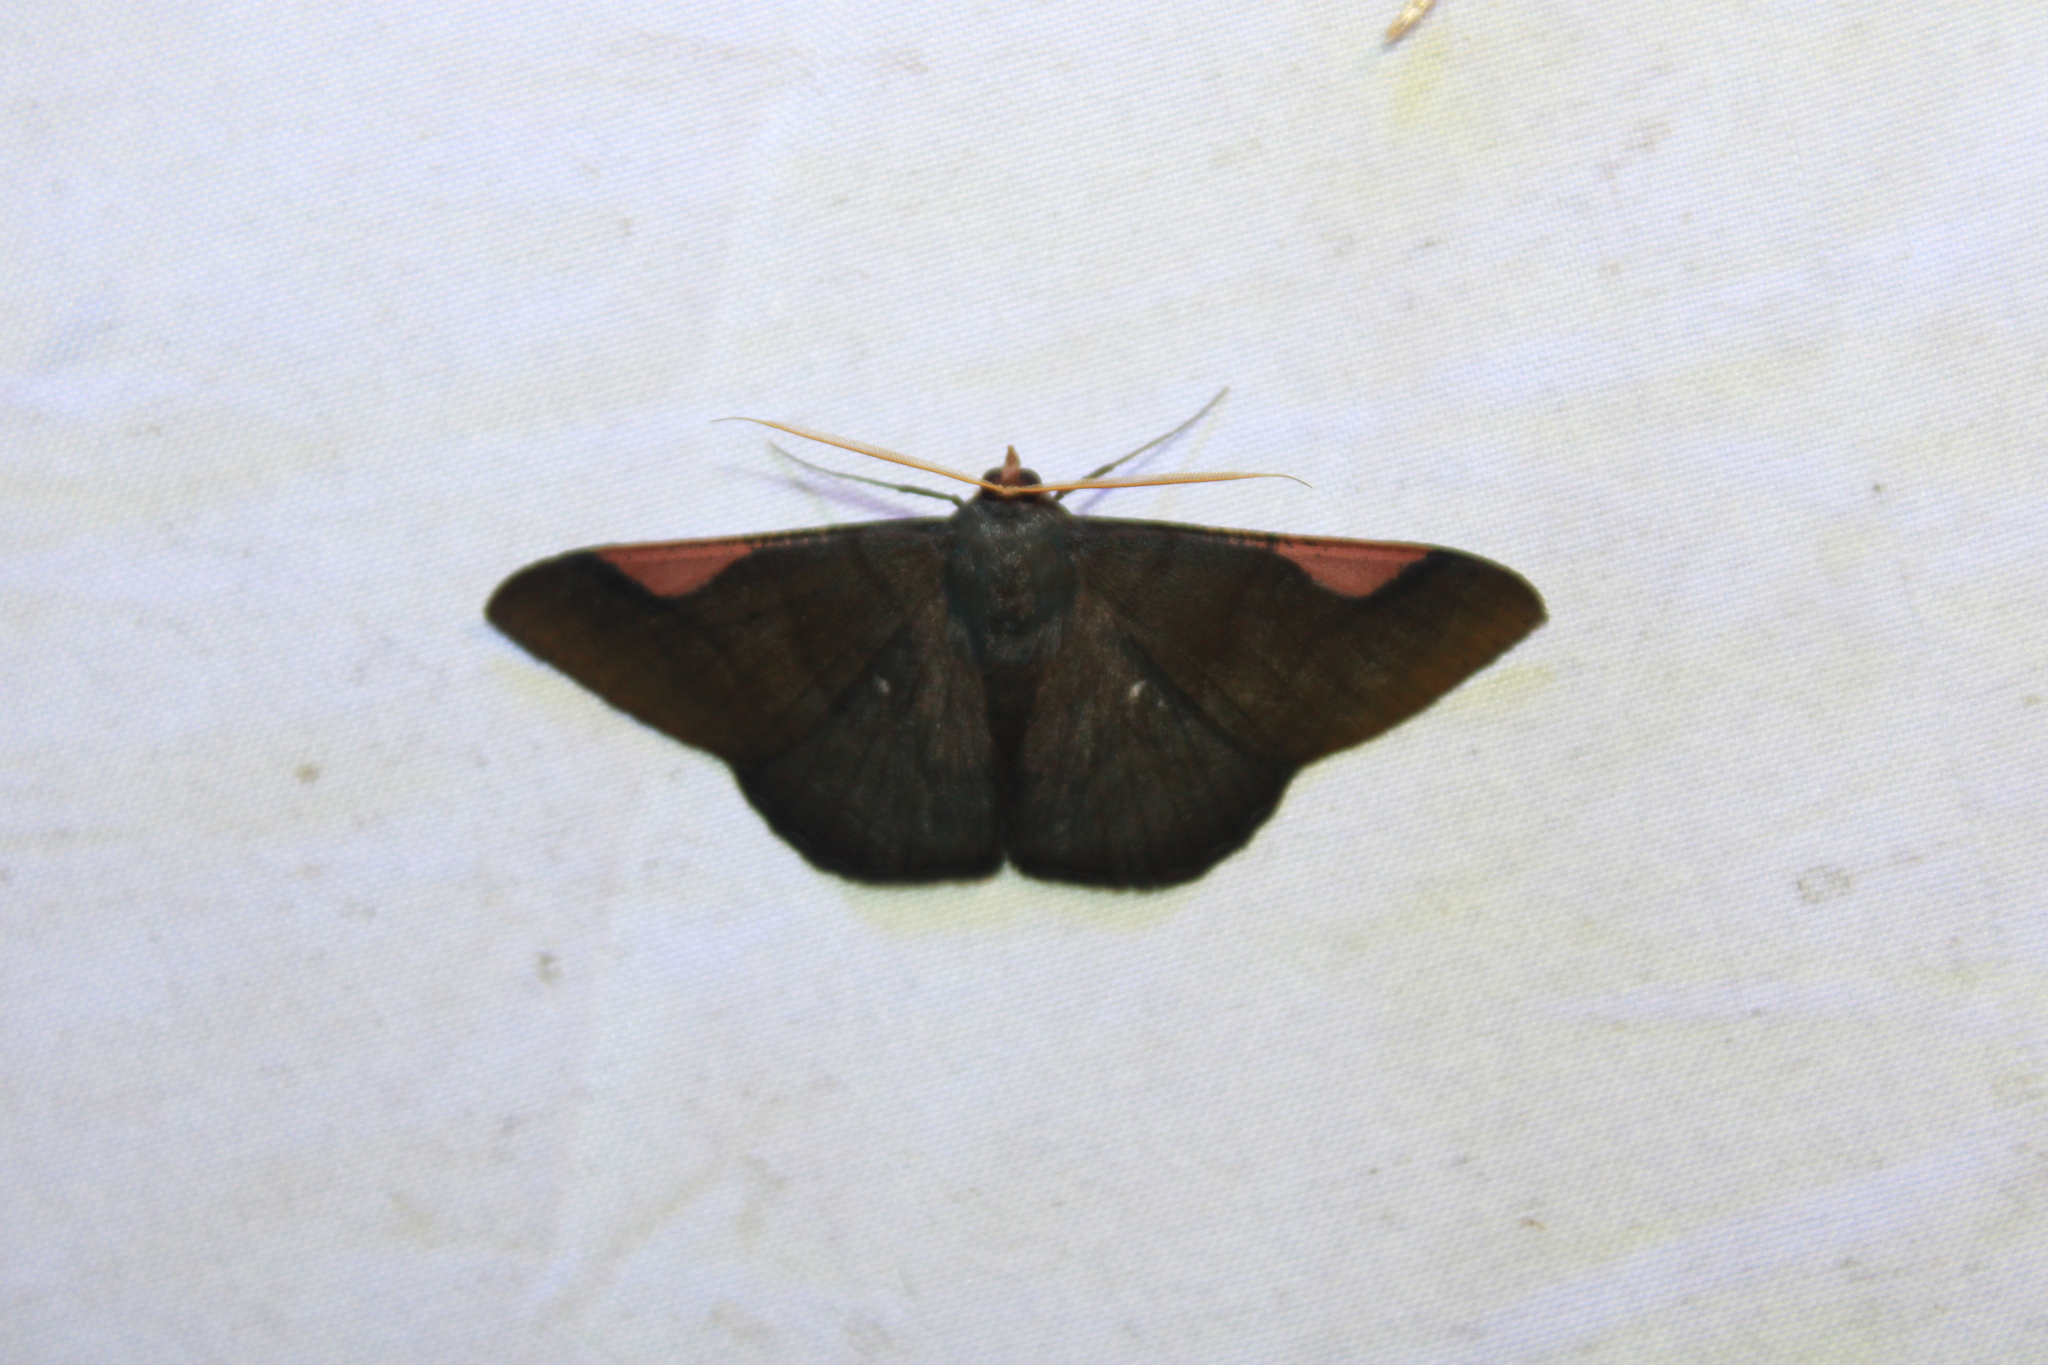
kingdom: Animalia
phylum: Arthropoda
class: Insecta
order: Lepidoptera
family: Geometridae
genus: Sphacelodes
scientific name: Sphacelodes vulneraria
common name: Looper moth
